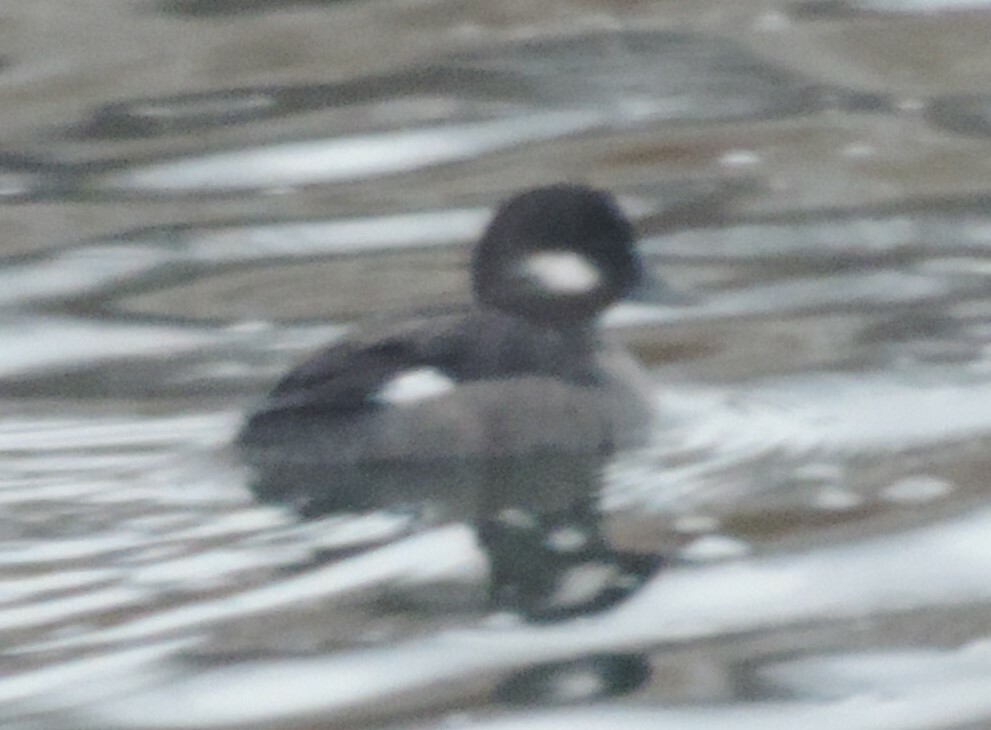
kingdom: Animalia
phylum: Chordata
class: Aves
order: Anseriformes
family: Anatidae
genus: Bucephala
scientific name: Bucephala albeola
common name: Bufflehead
